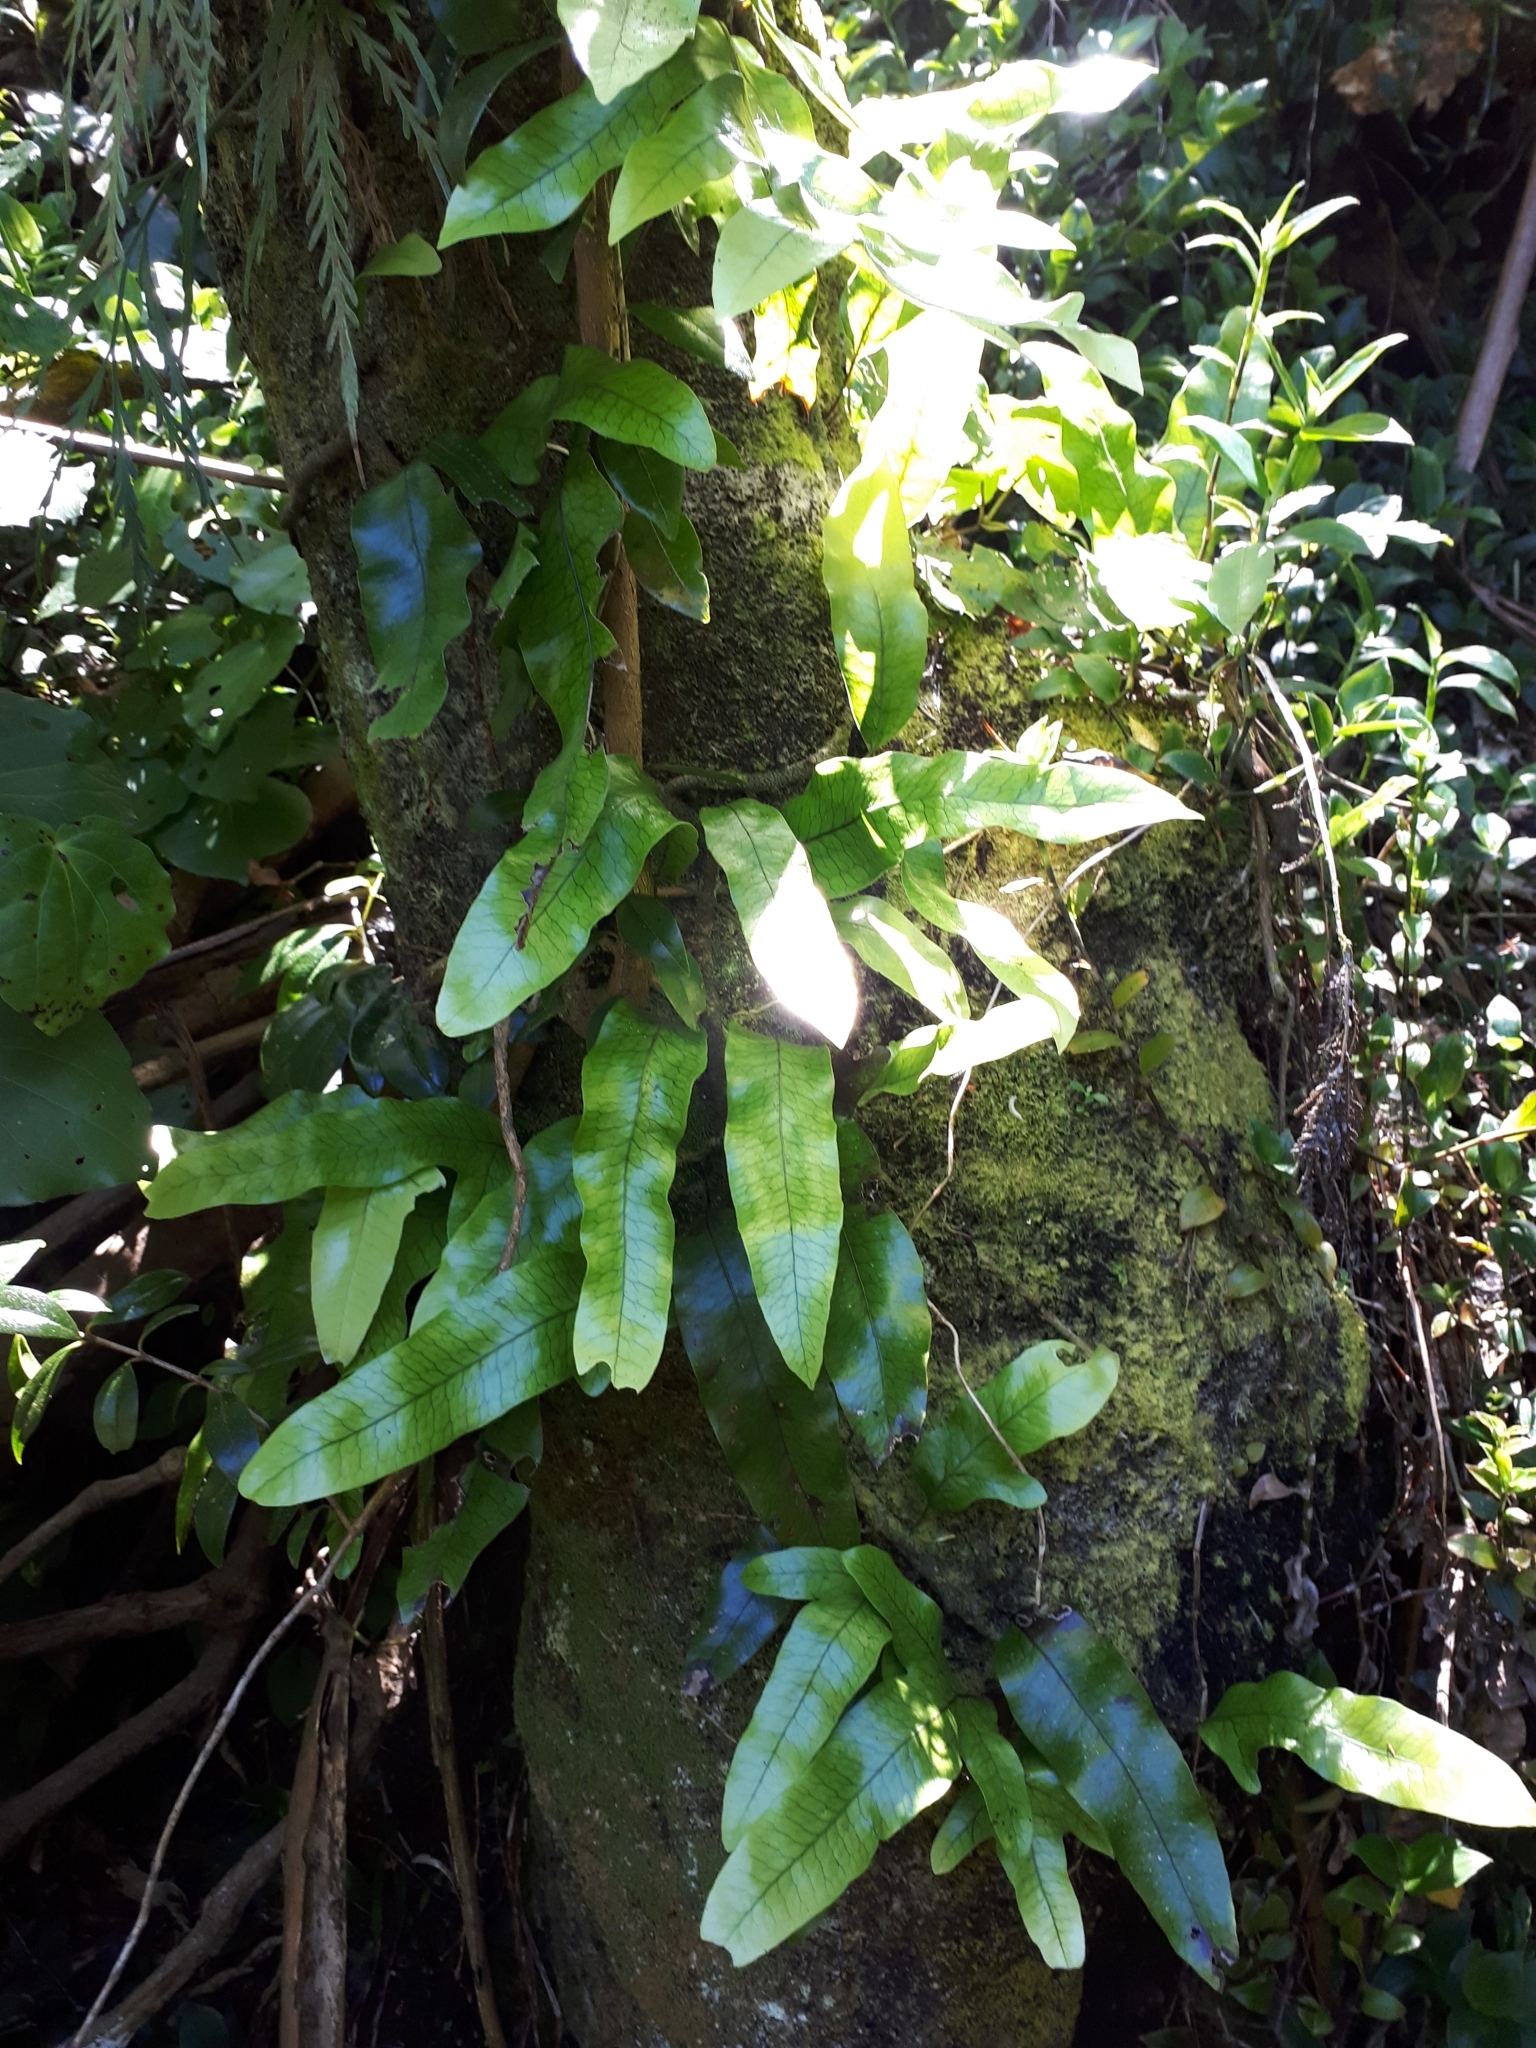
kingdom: Plantae
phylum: Tracheophyta
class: Polypodiopsida
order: Polypodiales
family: Polypodiaceae
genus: Lecanopteris
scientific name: Lecanopteris pustulata
